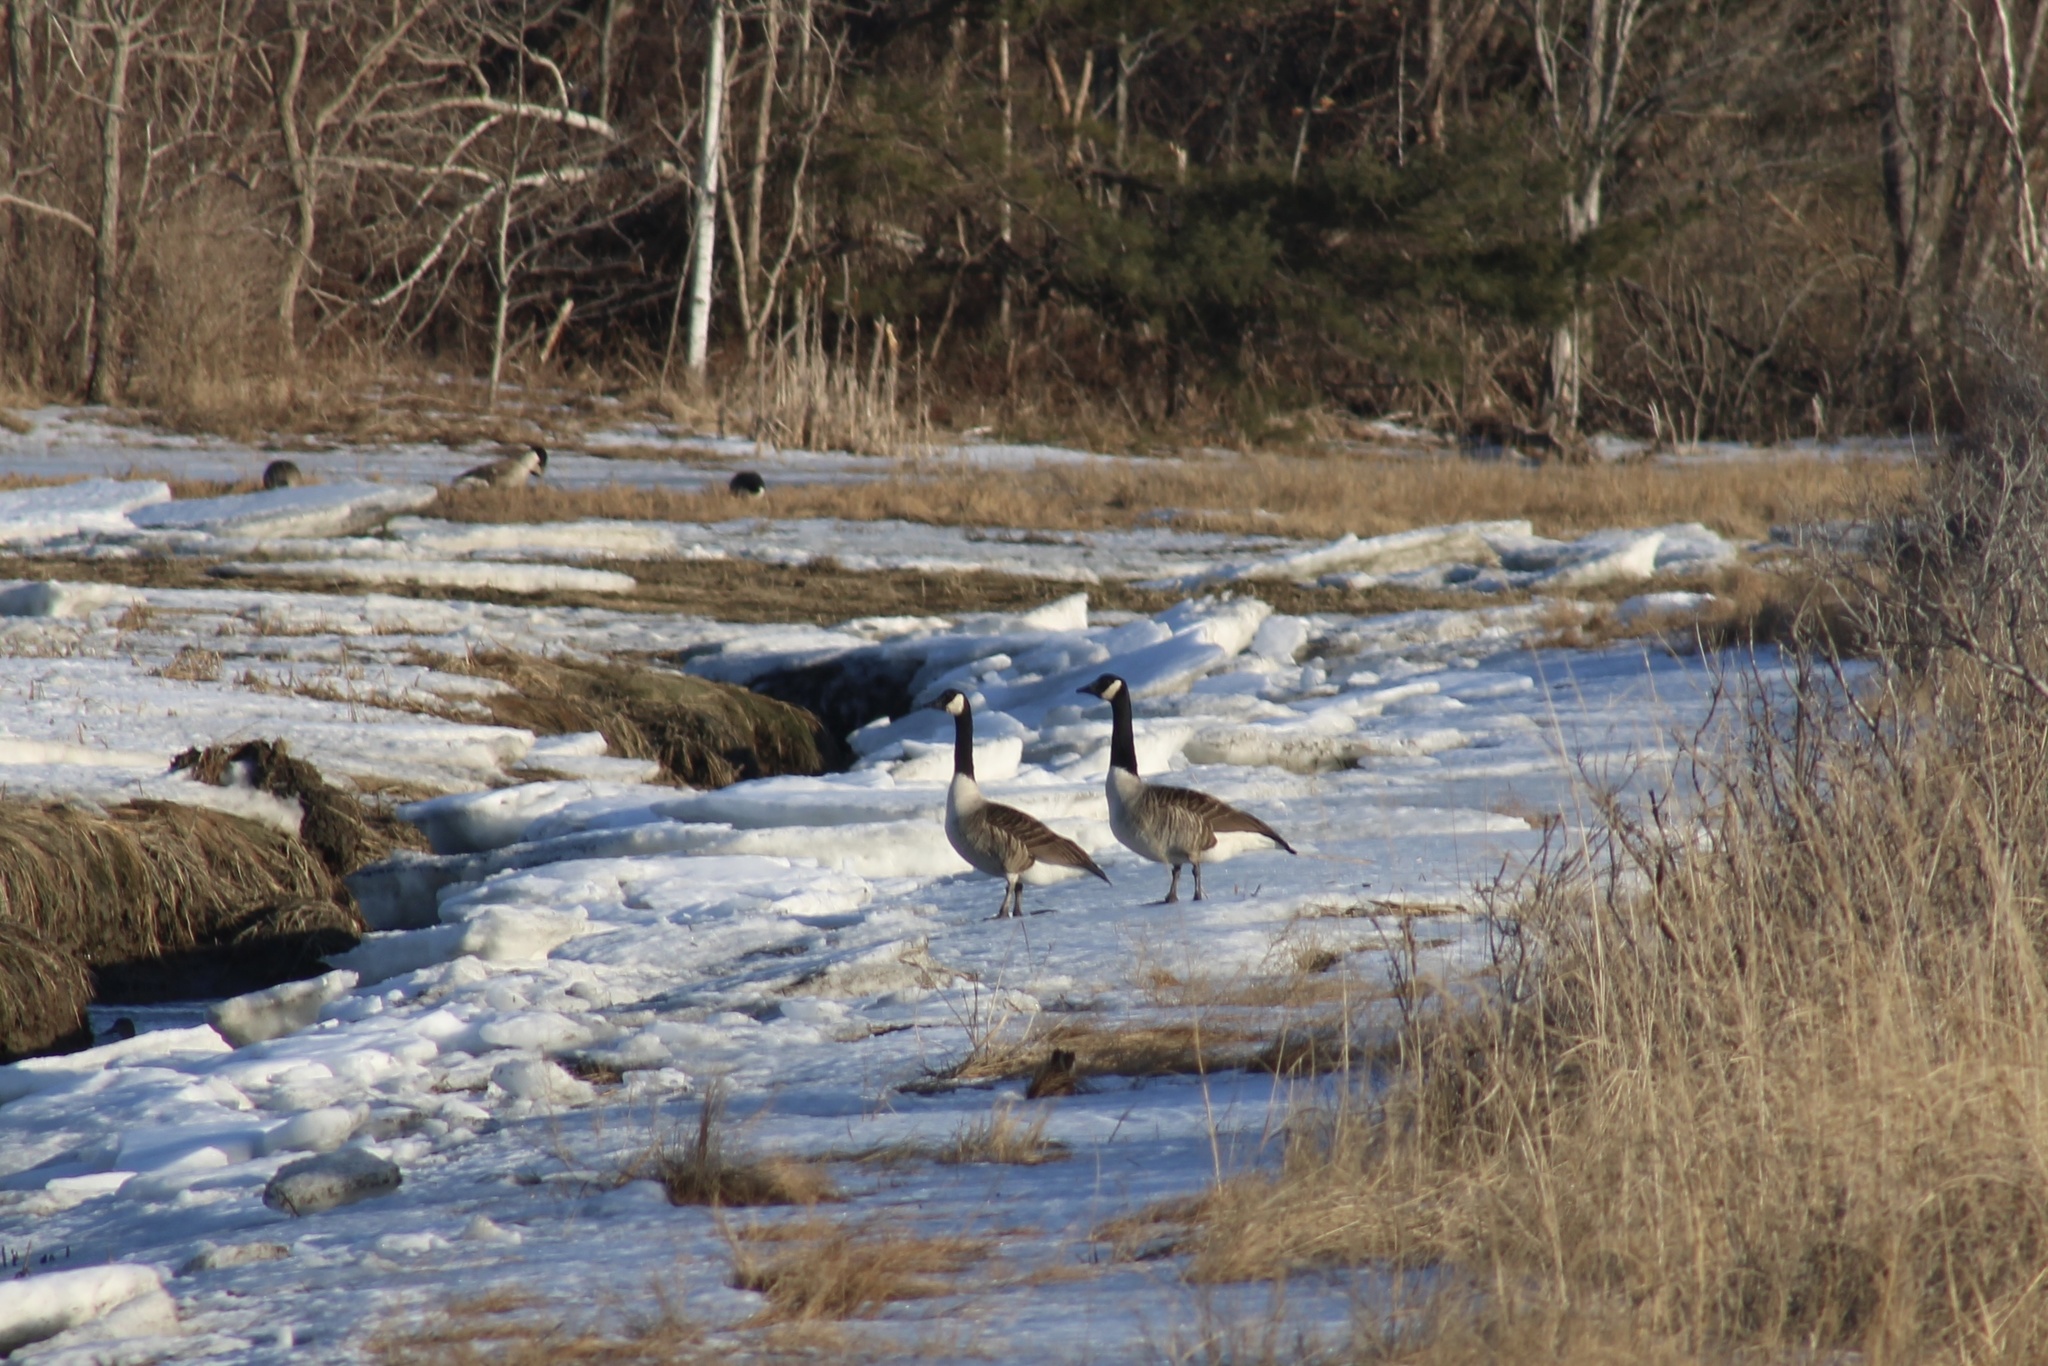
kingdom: Animalia
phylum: Chordata
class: Aves
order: Anseriformes
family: Anatidae
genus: Branta
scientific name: Branta canadensis
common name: Canada goose
